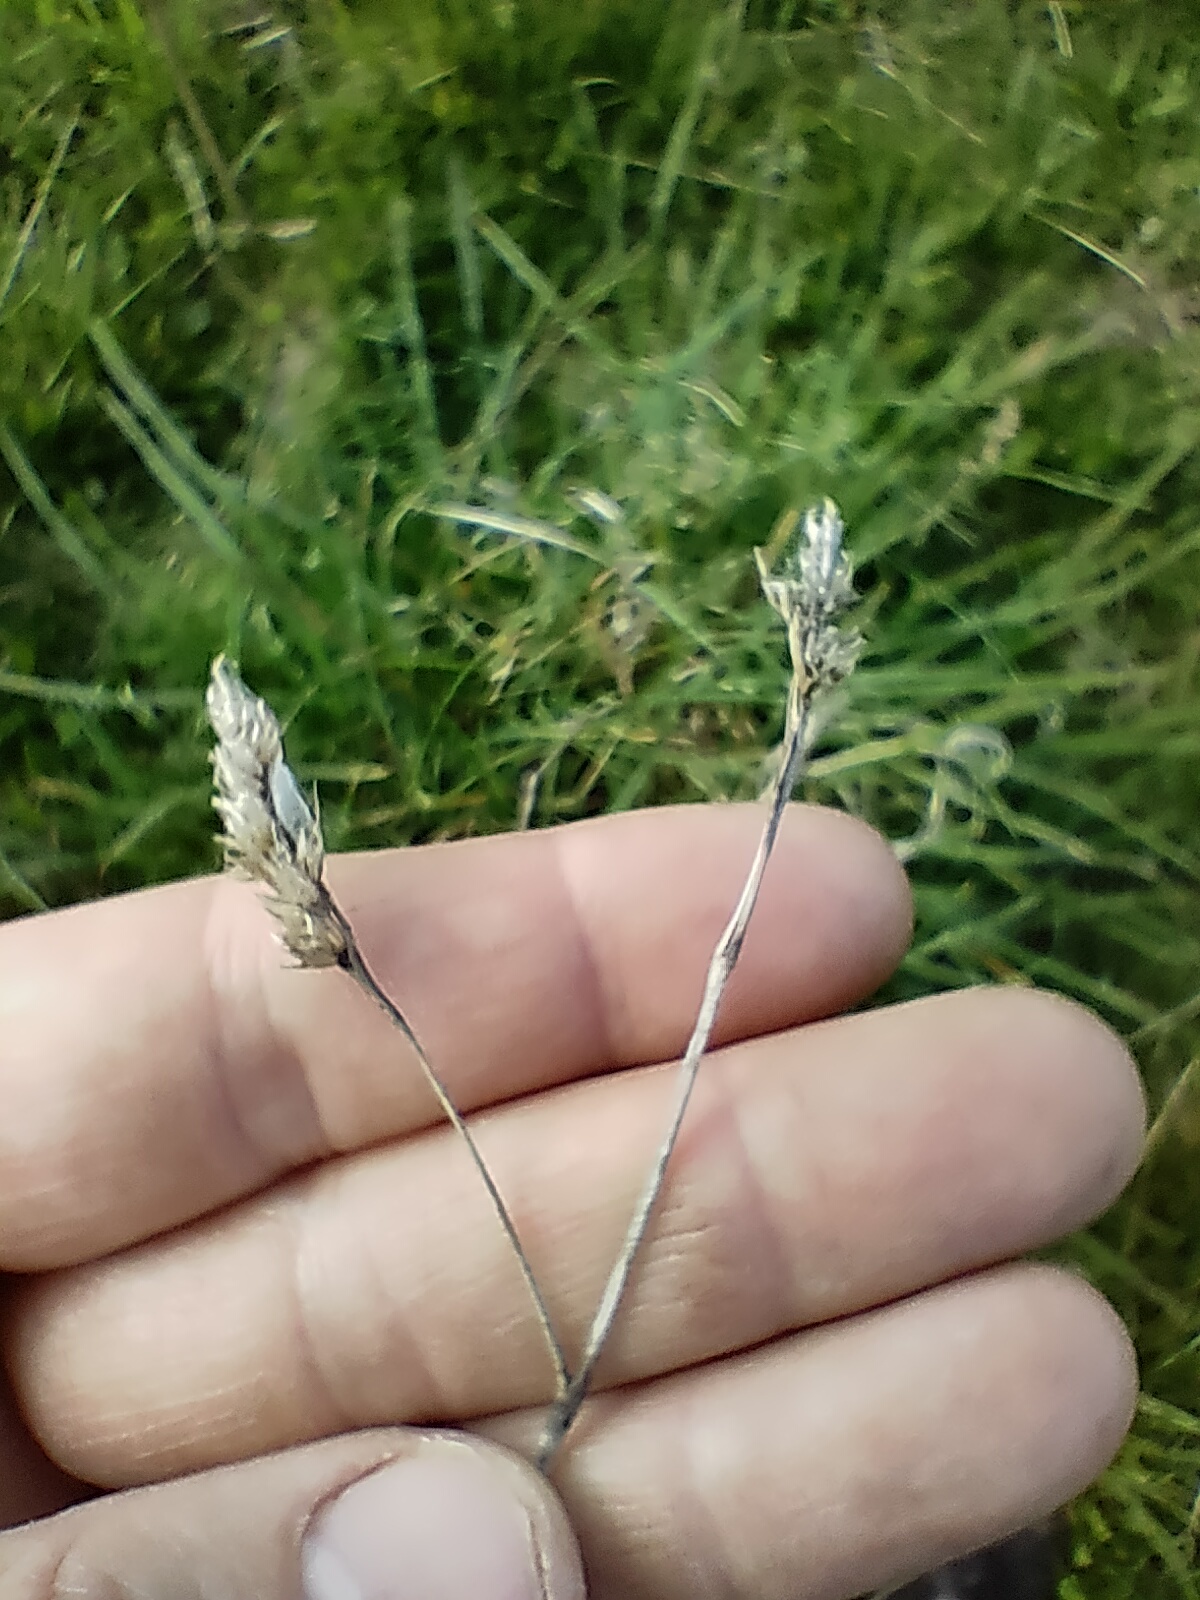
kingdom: Plantae
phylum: Tracheophyta
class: Liliopsida
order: Poales
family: Poaceae
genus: Dactylis
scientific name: Dactylis glomerata
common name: Orchardgrass
